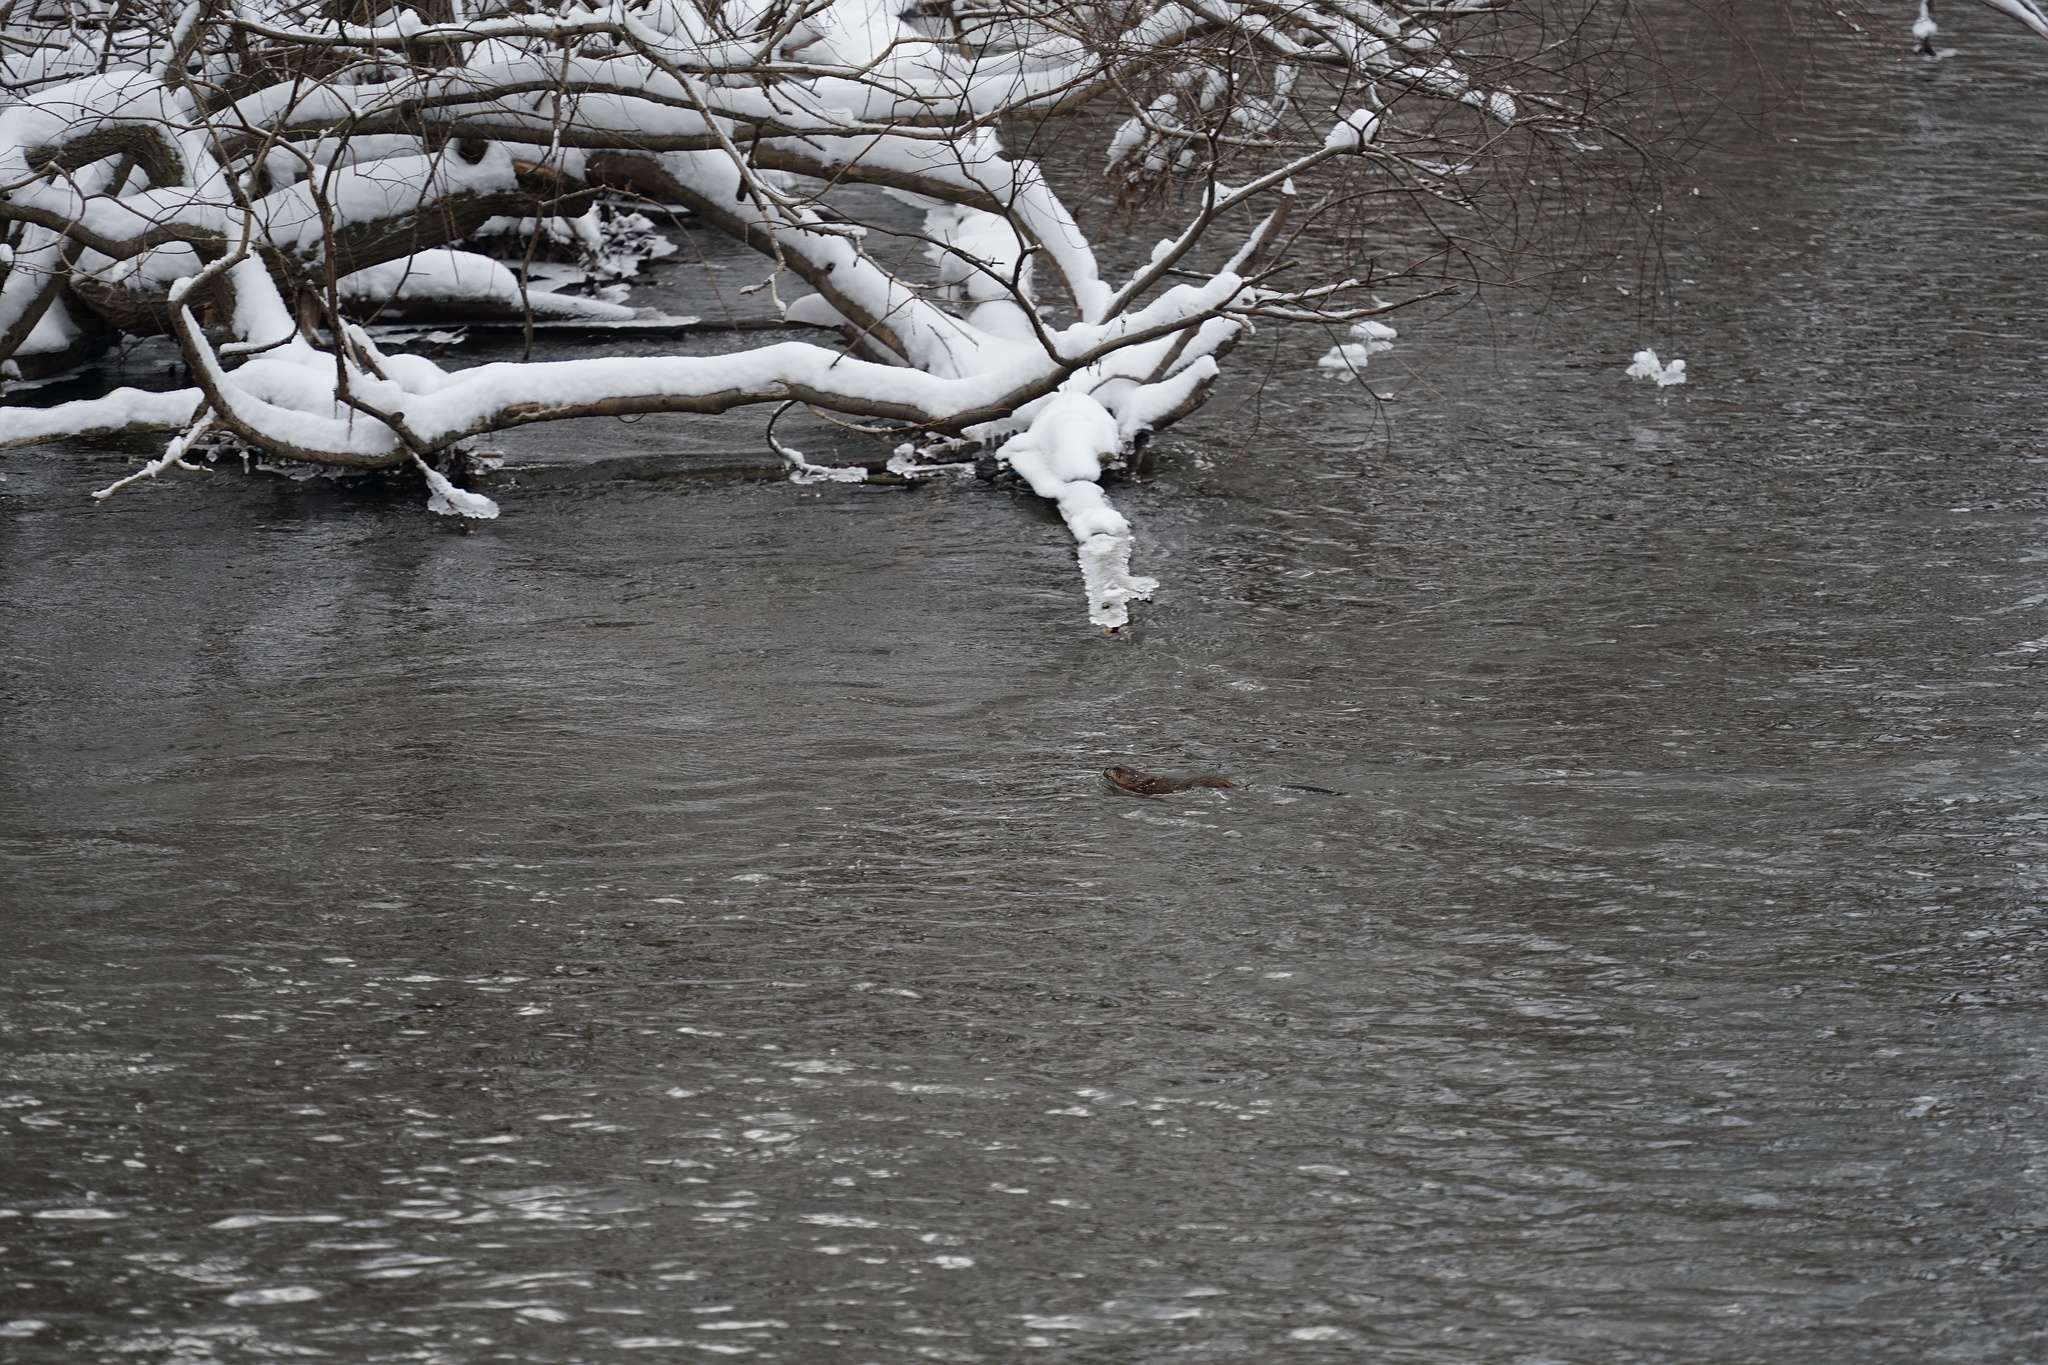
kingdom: Animalia
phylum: Chordata
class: Mammalia
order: Rodentia
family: Cricetidae
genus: Ondatra
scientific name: Ondatra zibethicus
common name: Muskrat
